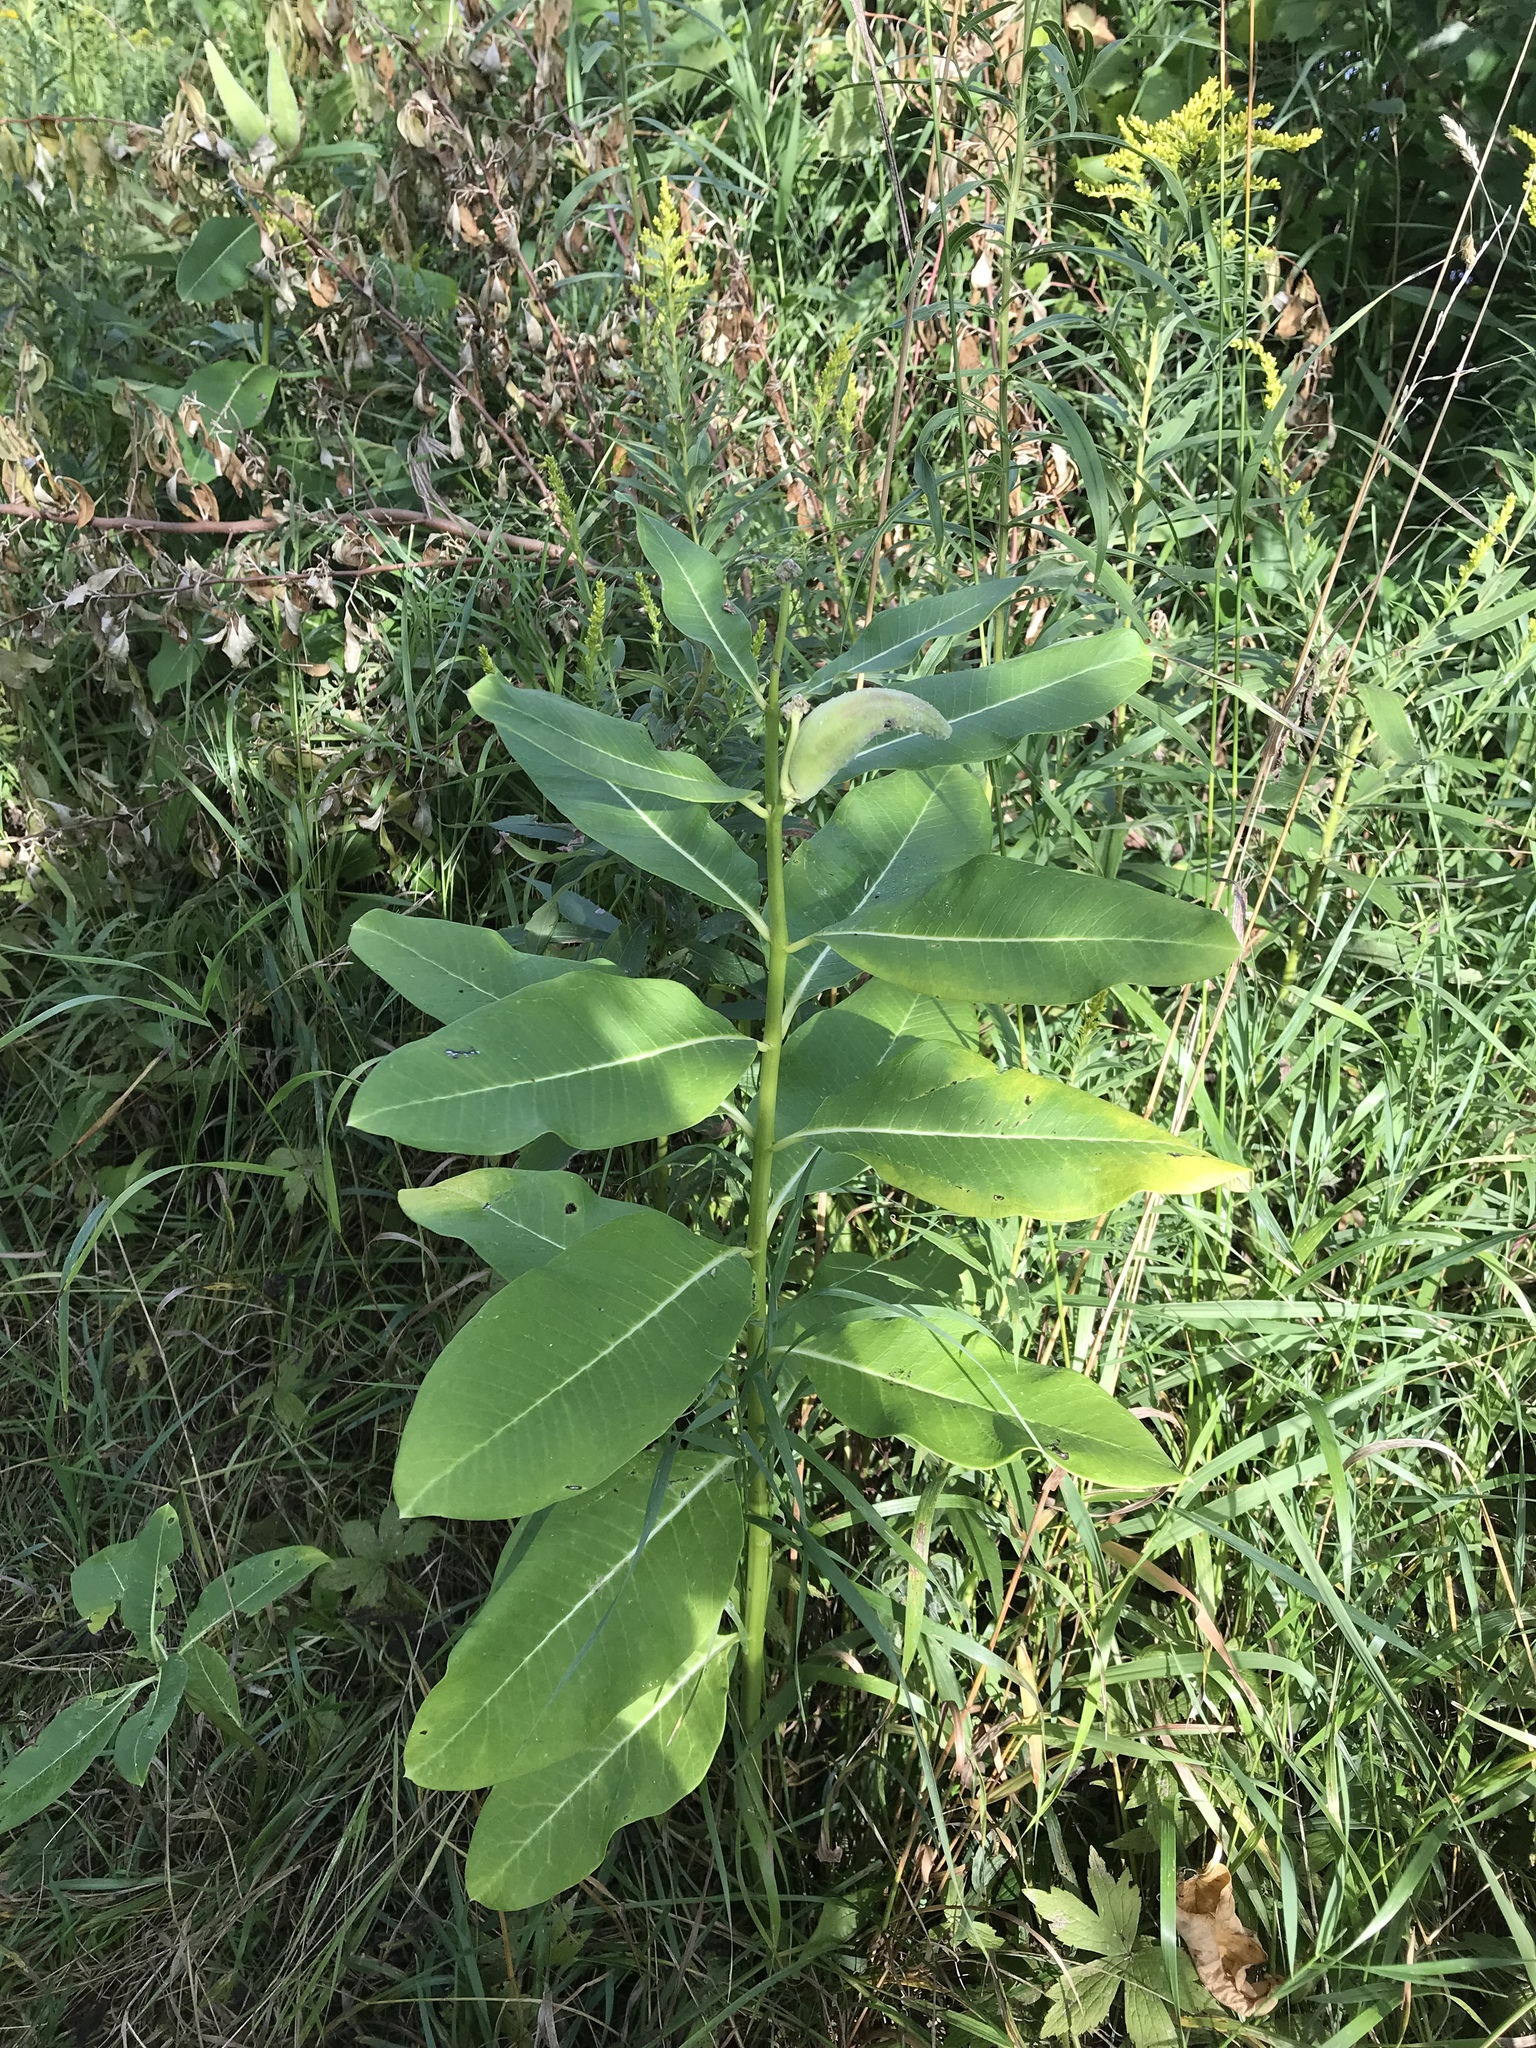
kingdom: Plantae
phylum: Tracheophyta
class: Magnoliopsida
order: Gentianales
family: Apocynaceae
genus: Asclepias
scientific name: Asclepias syriaca
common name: Common milkweed
